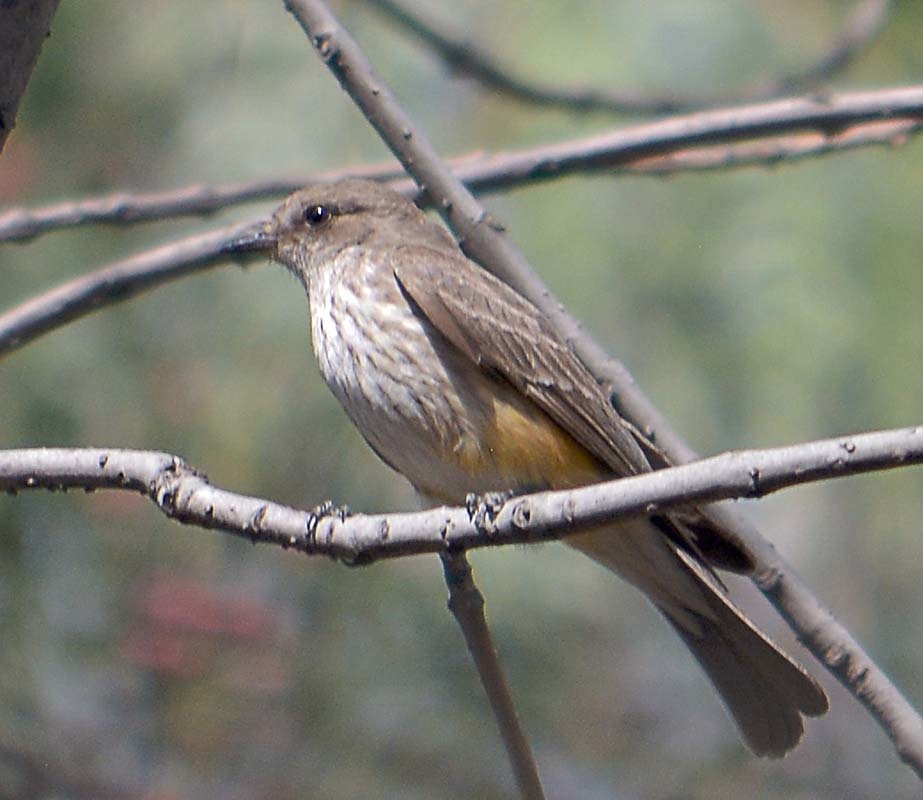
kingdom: Animalia
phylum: Chordata
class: Aves
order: Passeriformes
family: Tyrannidae
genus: Pyrocephalus
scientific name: Pyrocephalus rubinus
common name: Vermilion flycatcher
